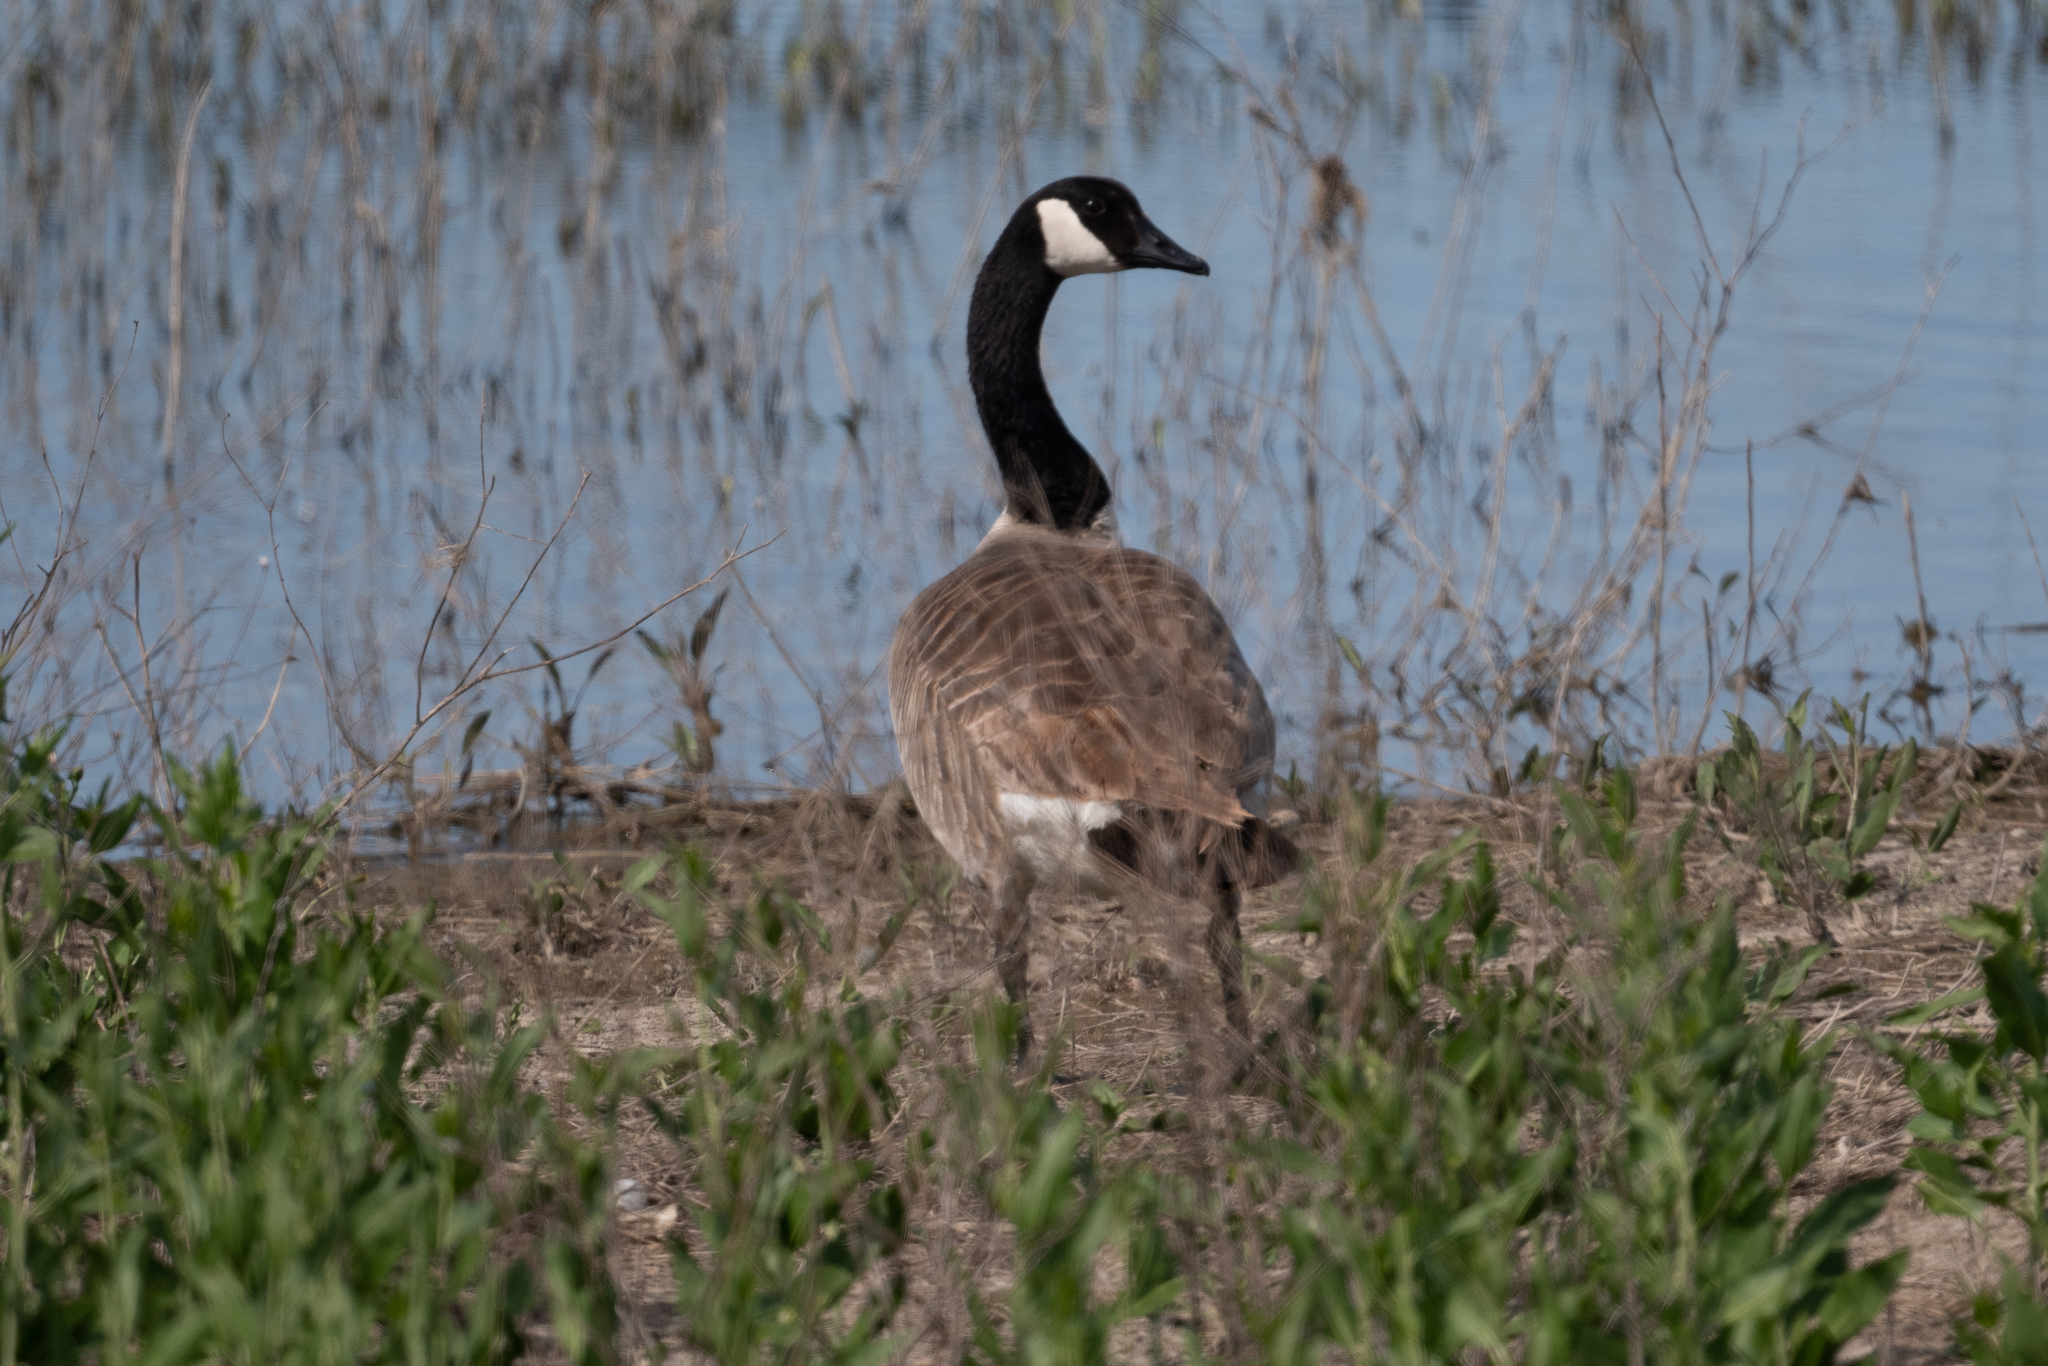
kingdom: Animalia
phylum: Chordata
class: Aves
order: Anseriformes
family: Anatidae
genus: Branta
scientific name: Branta canadensis
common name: Canada goose
